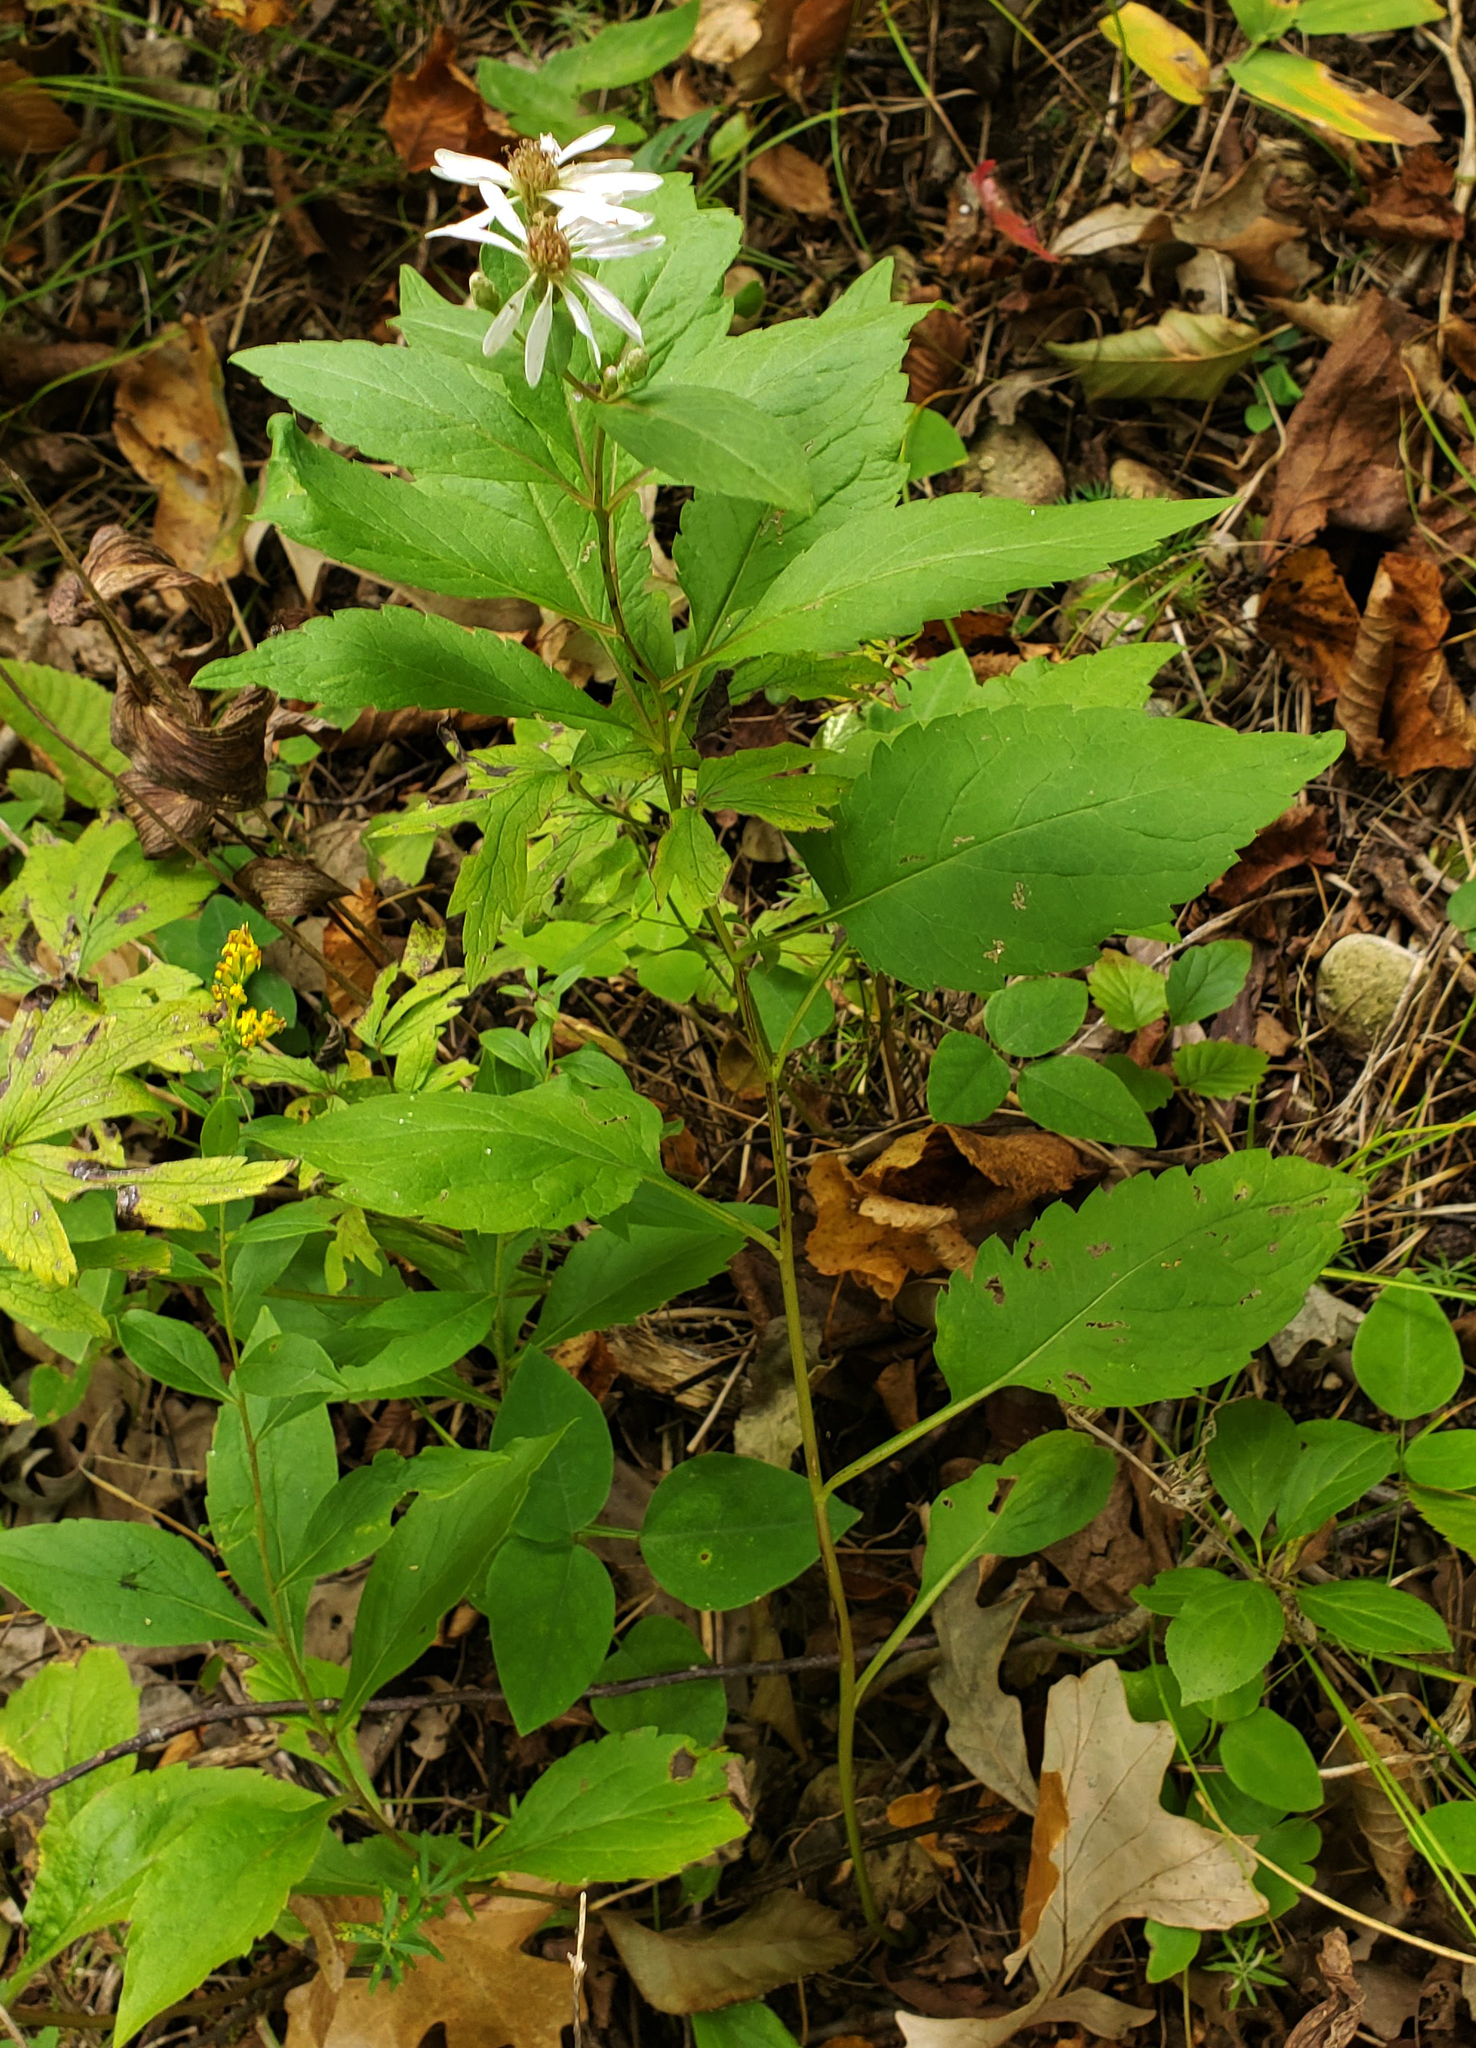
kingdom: Plantae
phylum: Tracheophyta
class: Magnoliopsida
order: Asterales
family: Asteraceae
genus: Eurybia
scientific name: Eurybia furcata
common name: Forked aster
